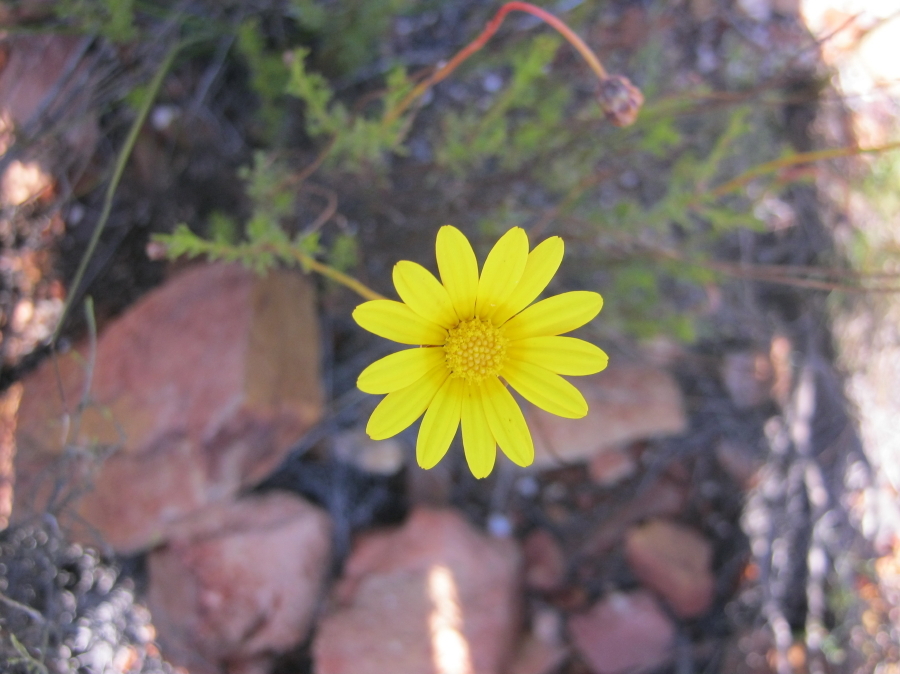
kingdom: Plantae
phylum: Tracheophyta
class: Magnoliopsida
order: Asterales
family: Asteraceae
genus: Ursinia
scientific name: Ursinia trifida
